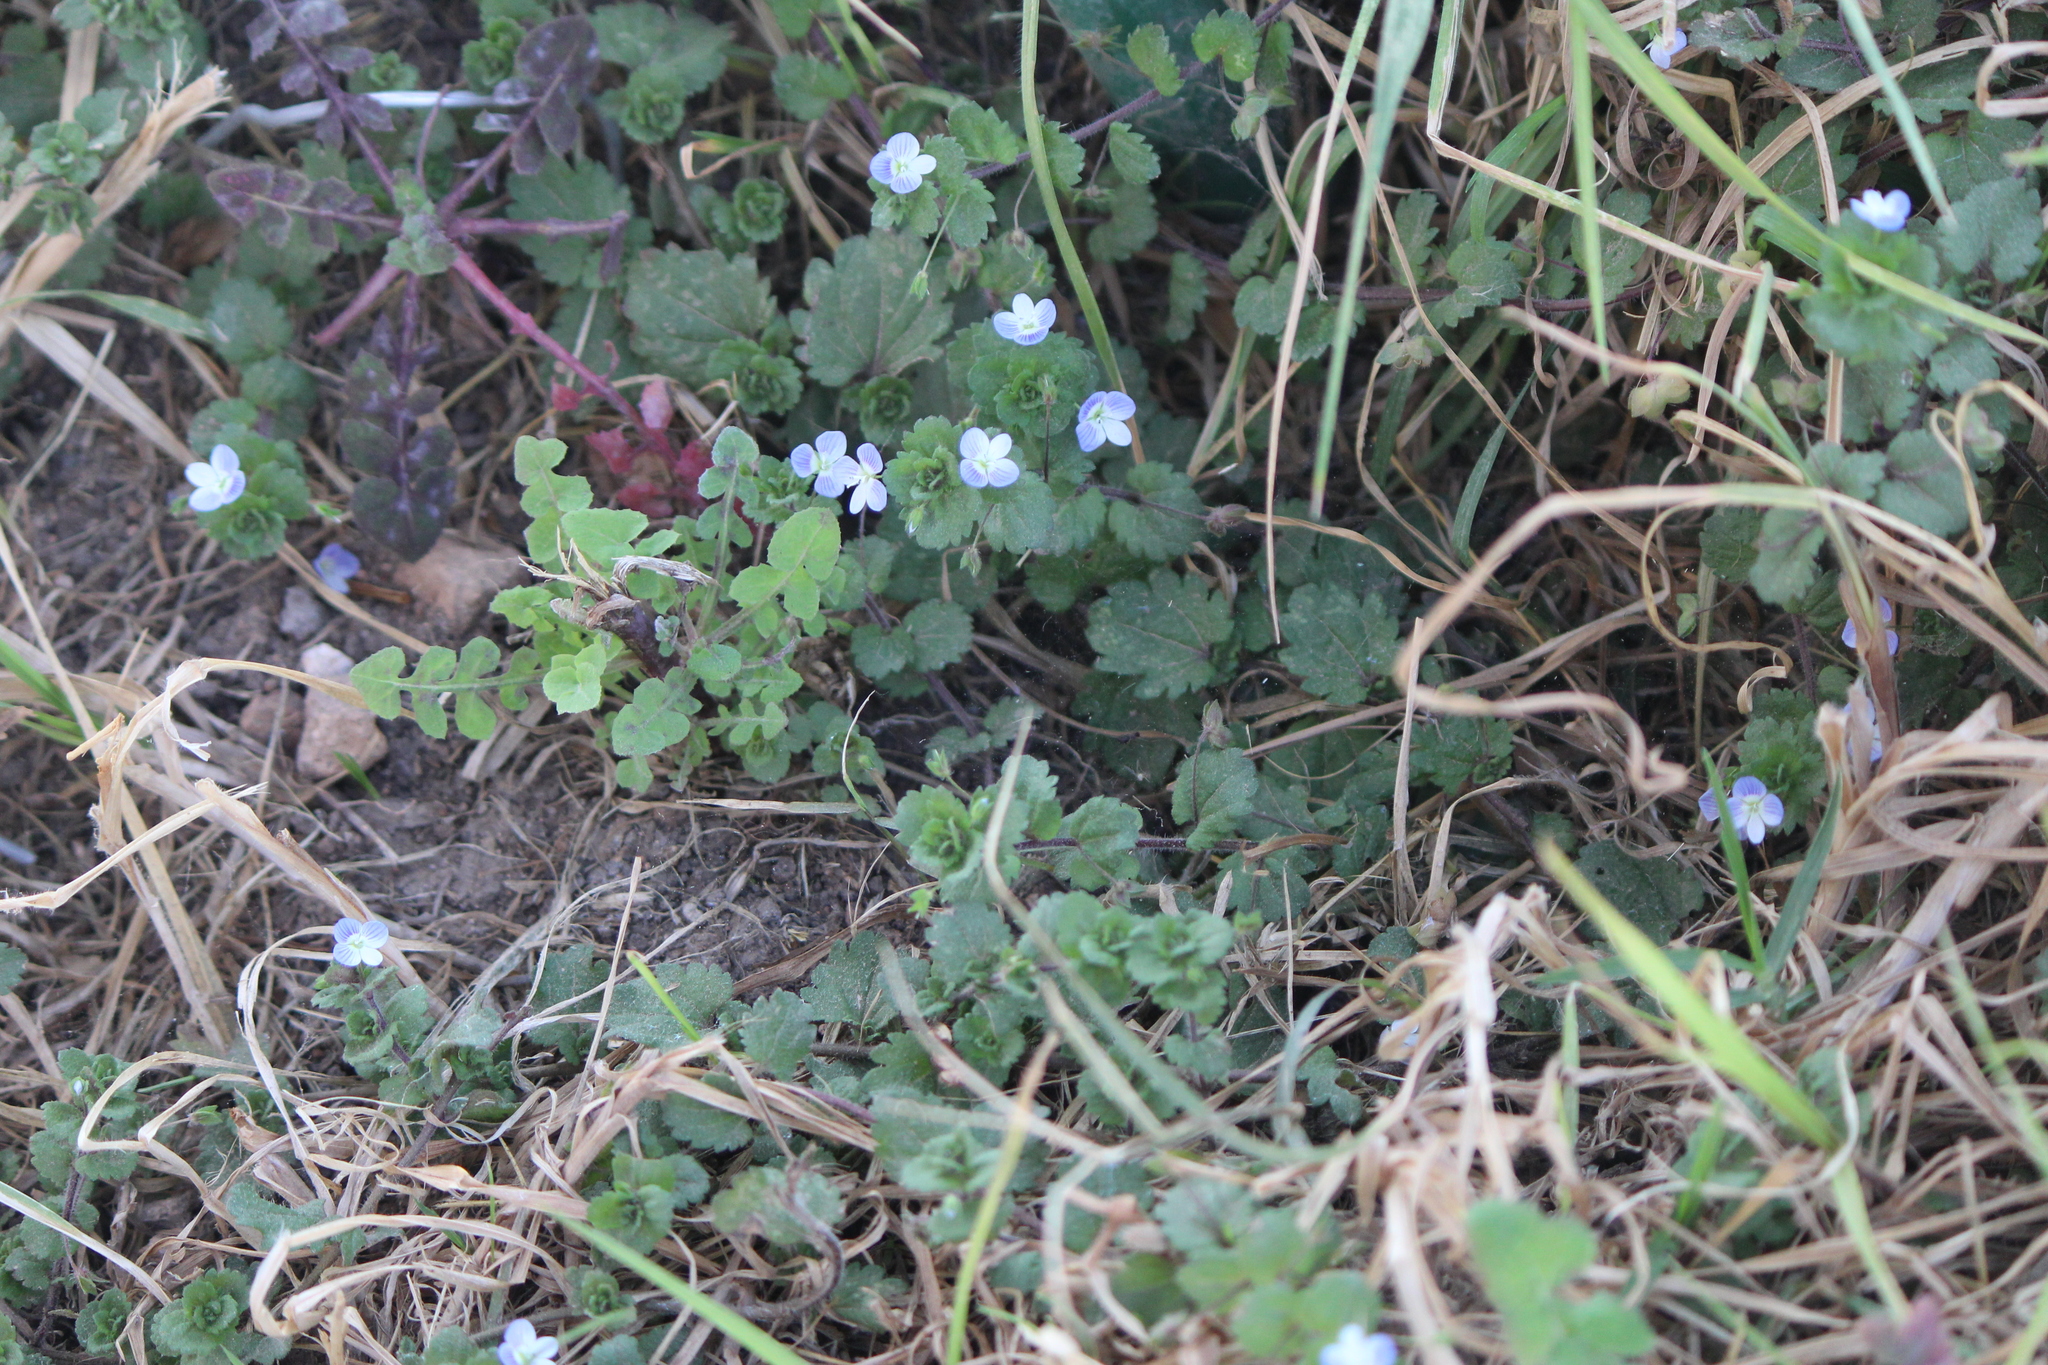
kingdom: Plantae
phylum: Tracheophyta
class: Magnoliopsida
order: Lamiales
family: Plantaginaceae
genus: Veronica
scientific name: Veronica persica
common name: Common field-speedwell
